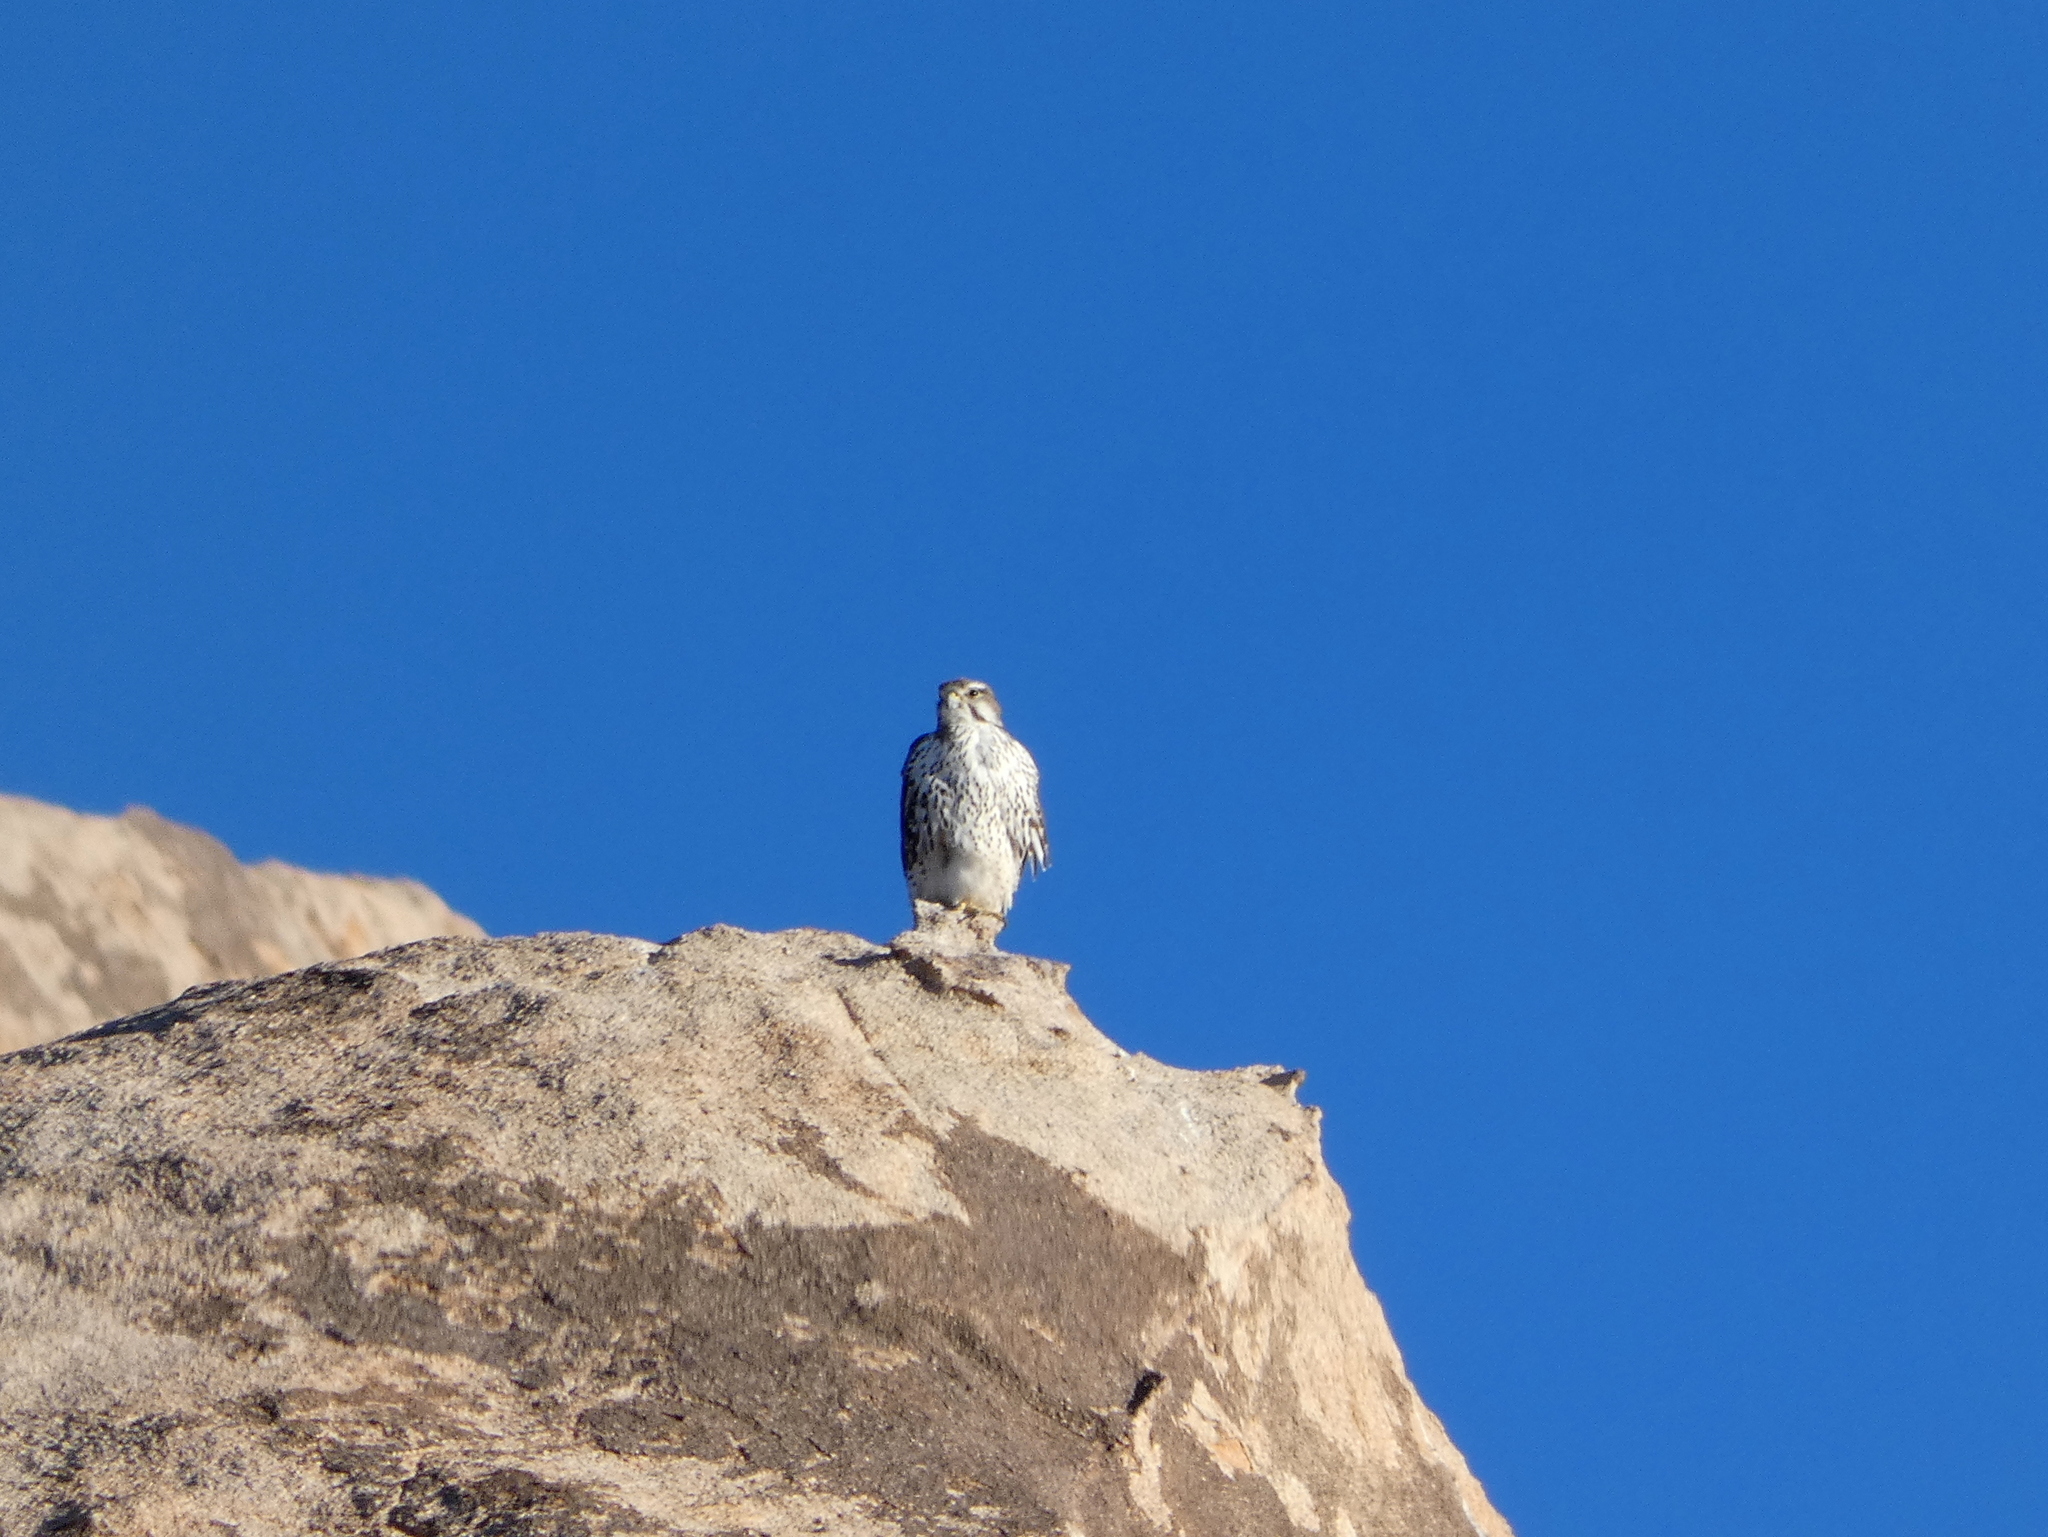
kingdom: Animalia
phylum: Chordata
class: Aves
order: Falconiformes
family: Falconidae
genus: Falco
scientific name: Falco mexicanus
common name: Prairie falcon
